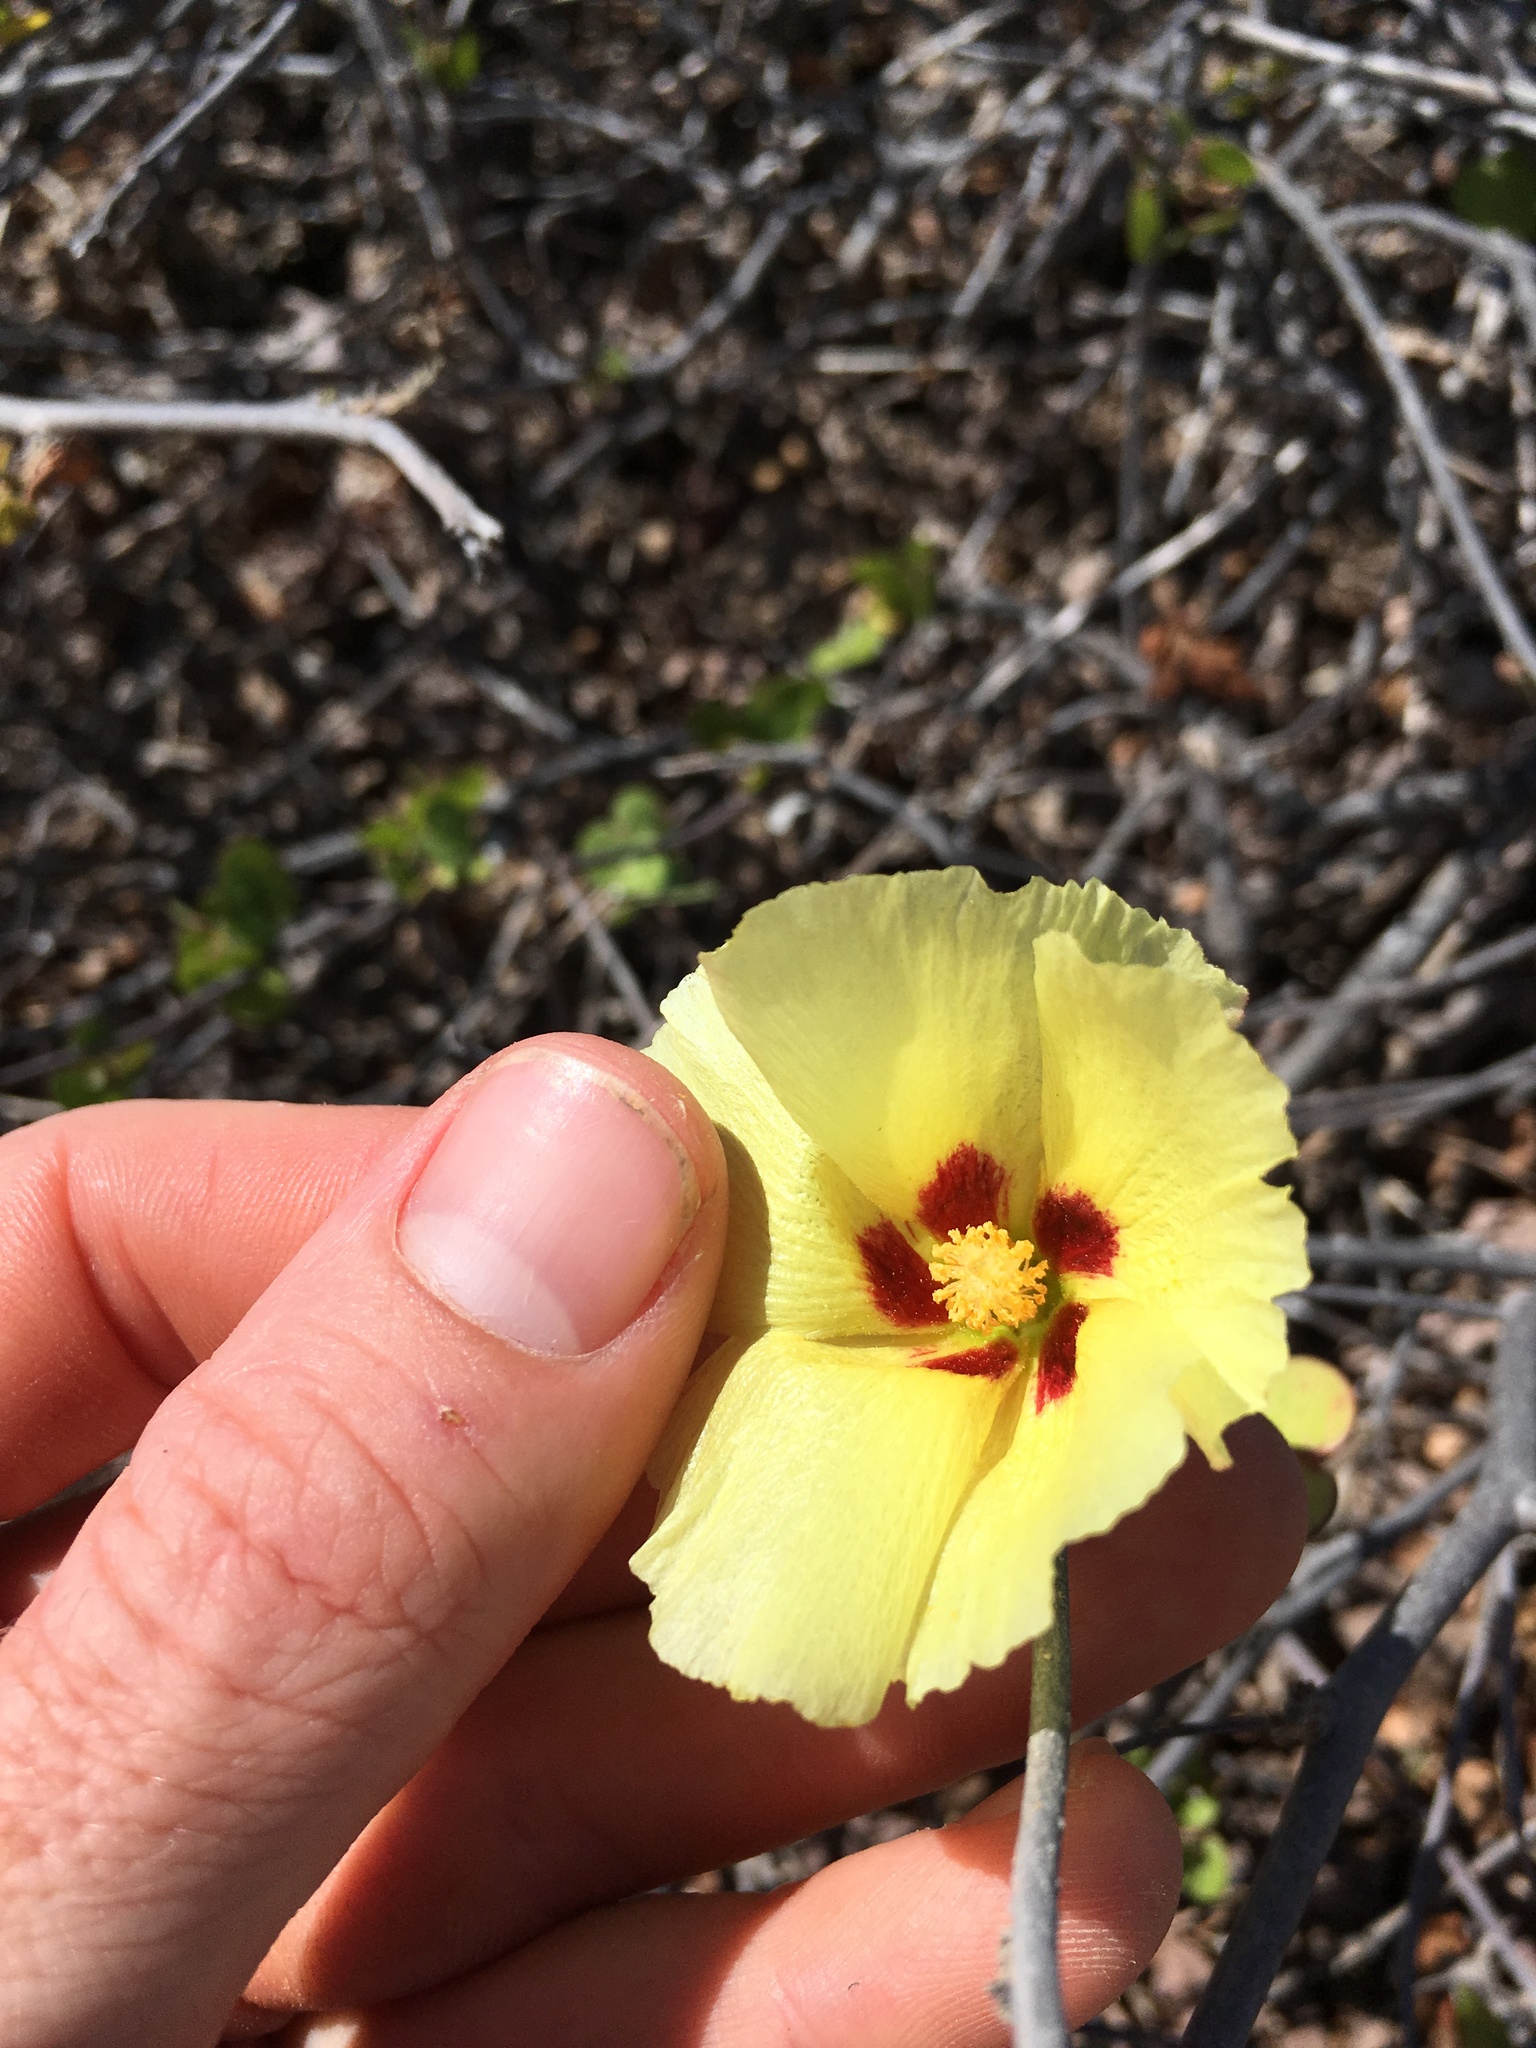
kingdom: Plantae
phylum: Tracheophyta
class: Magnoliopsida
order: Malvales
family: Malvaceae
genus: Gossypium
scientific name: Gossypium harknessii
